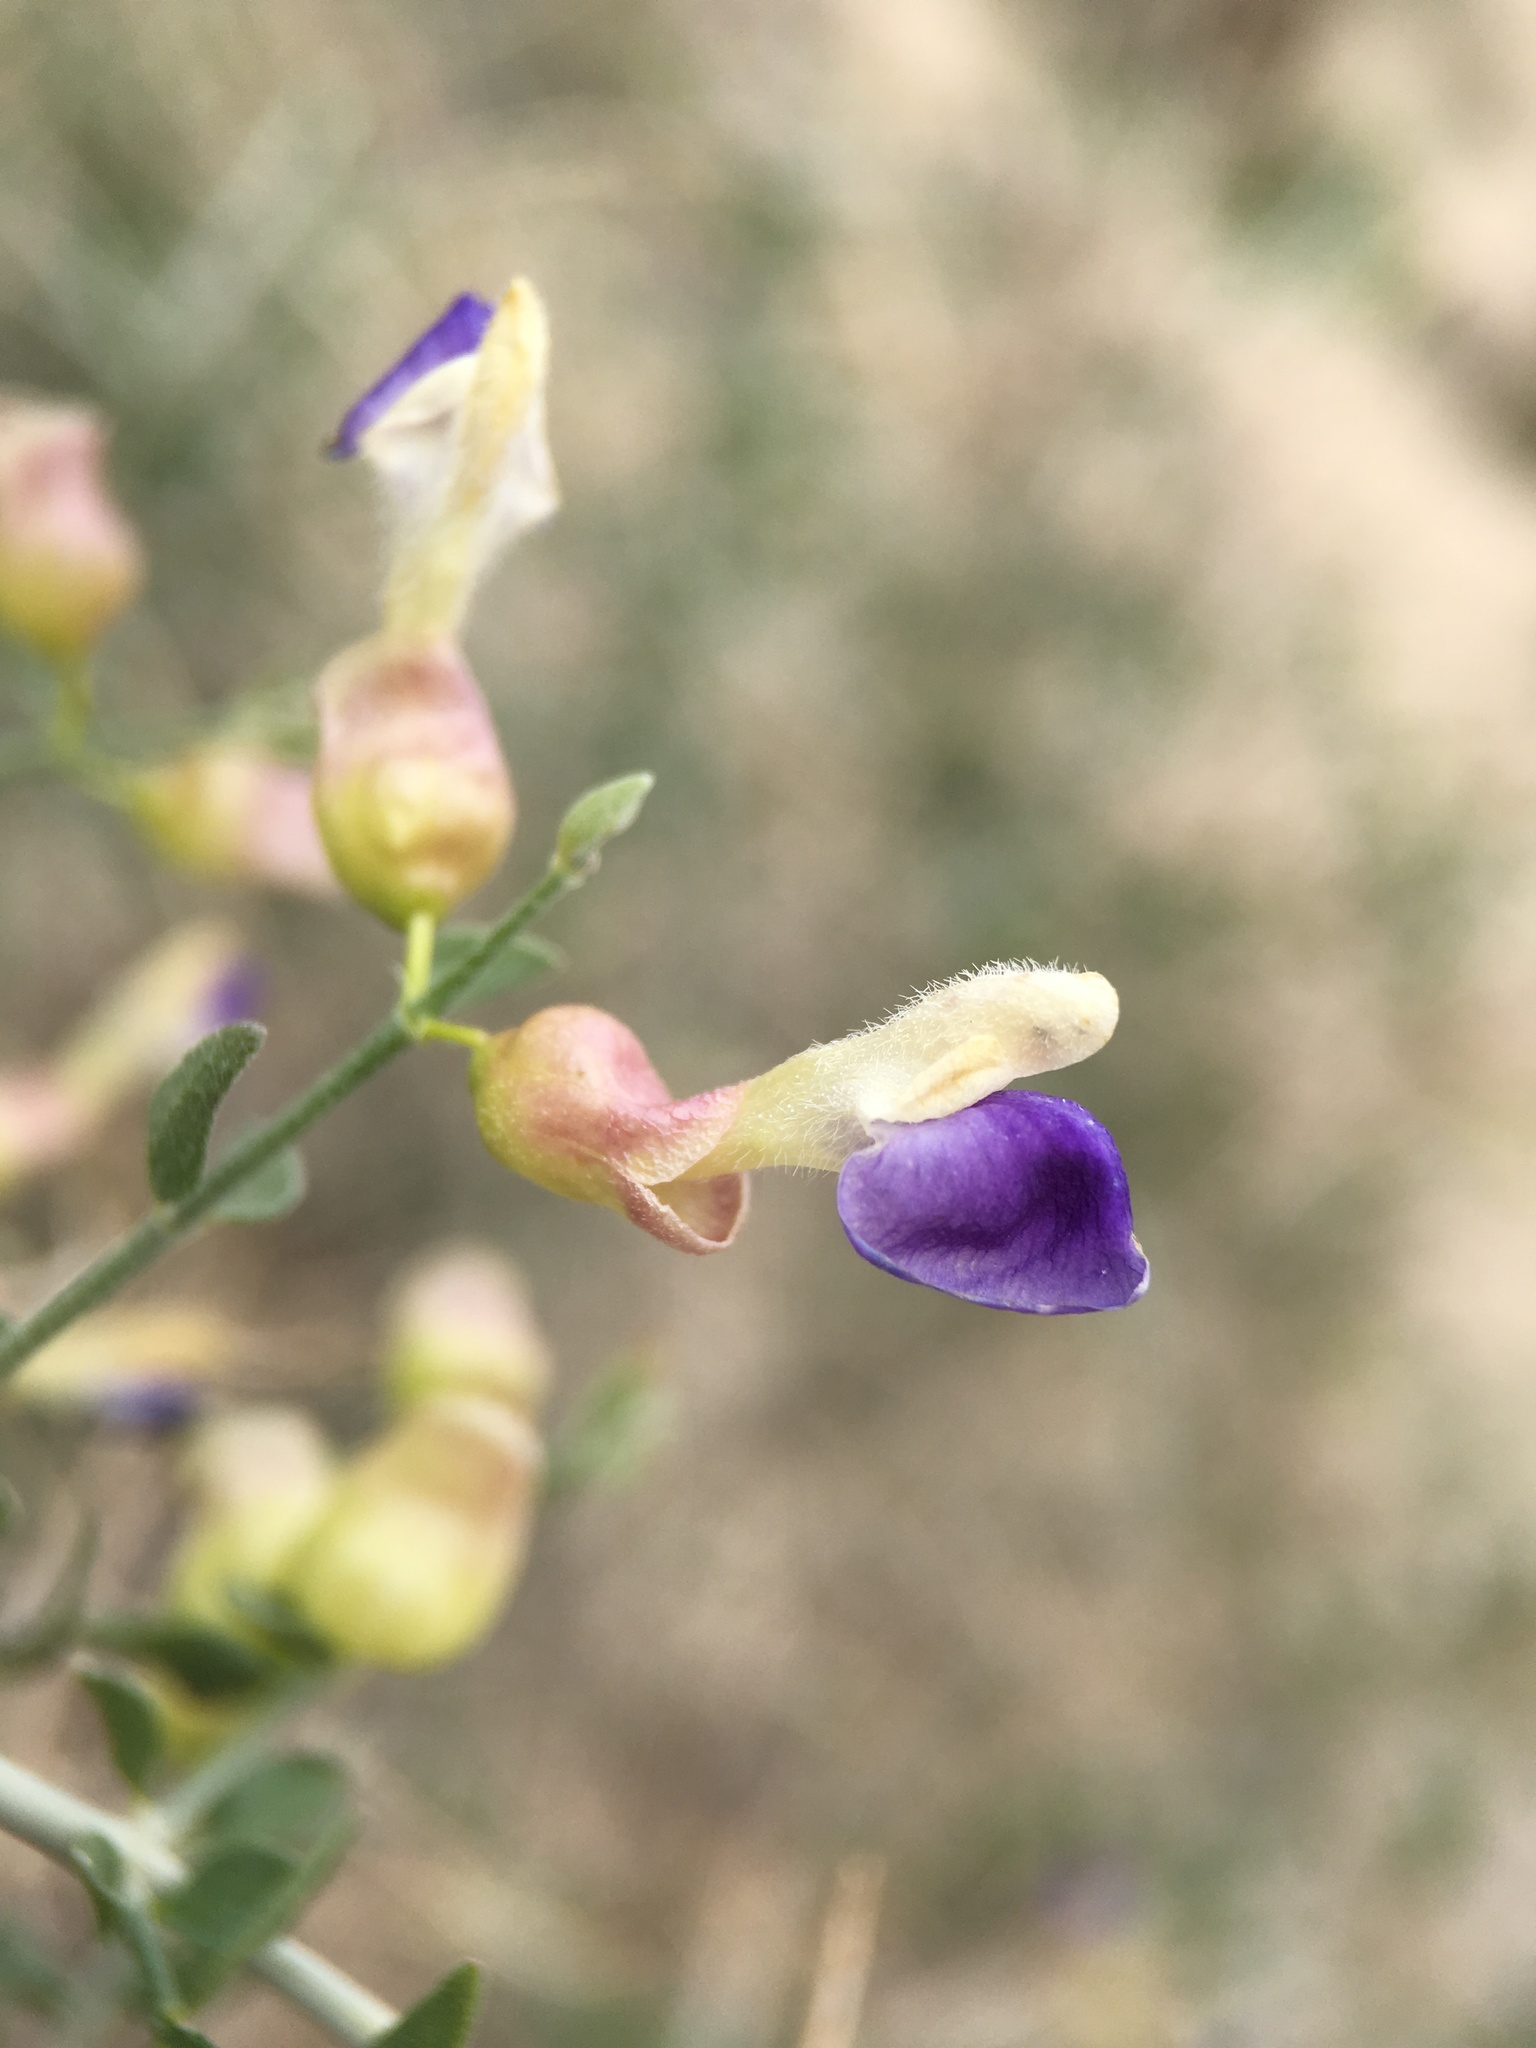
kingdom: Plantae
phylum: Tracheophyta
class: Magnoliopsida
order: Lamiales
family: Lamiaceae
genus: Scutellaria
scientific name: Scutellaria mexicana
